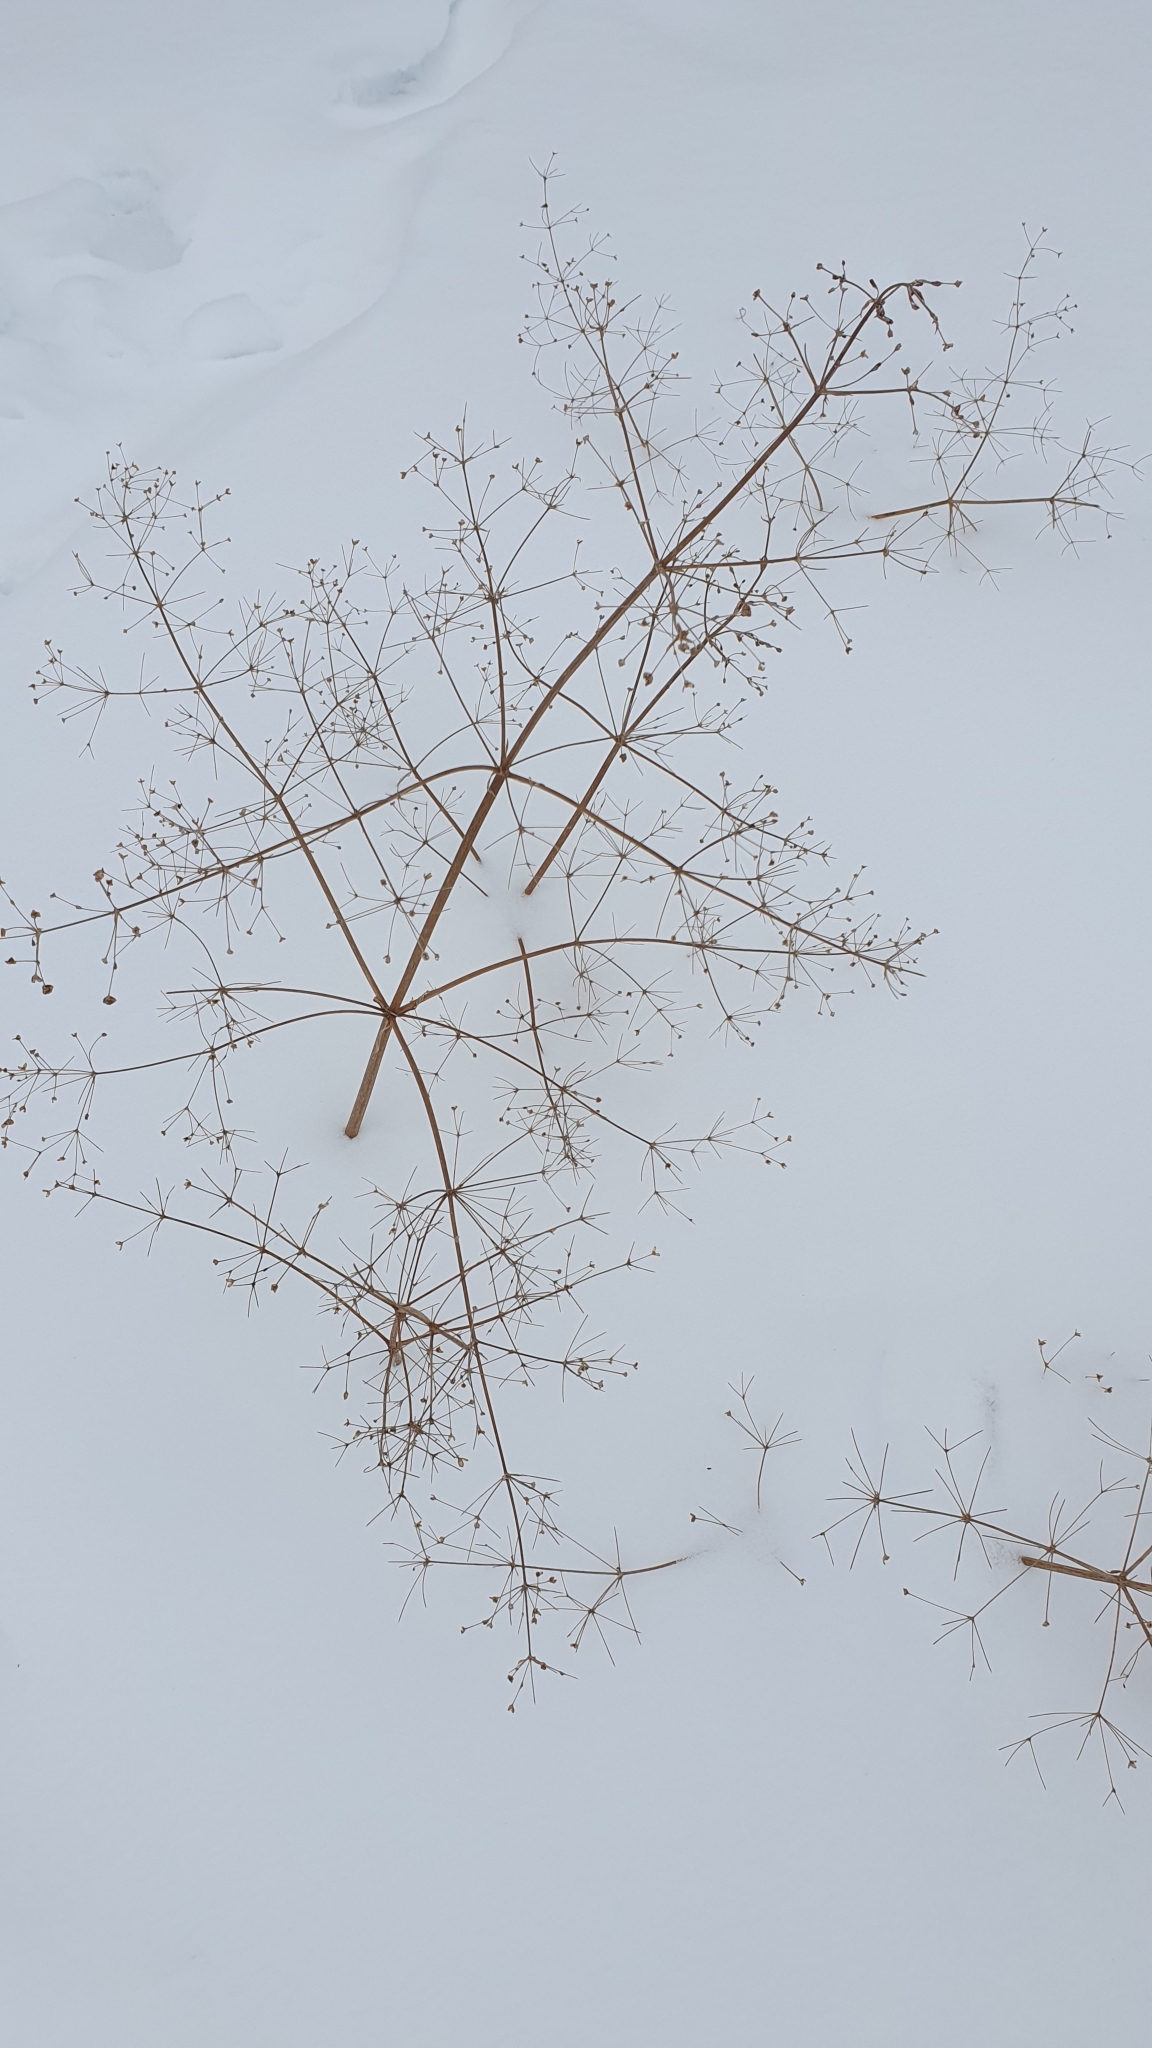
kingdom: Plantae
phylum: Tracheophyta
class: Liliopsida
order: Alismatales
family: Alismataceae
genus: Alisma
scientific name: Alisma plantago-aquatica
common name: Water-plantain
